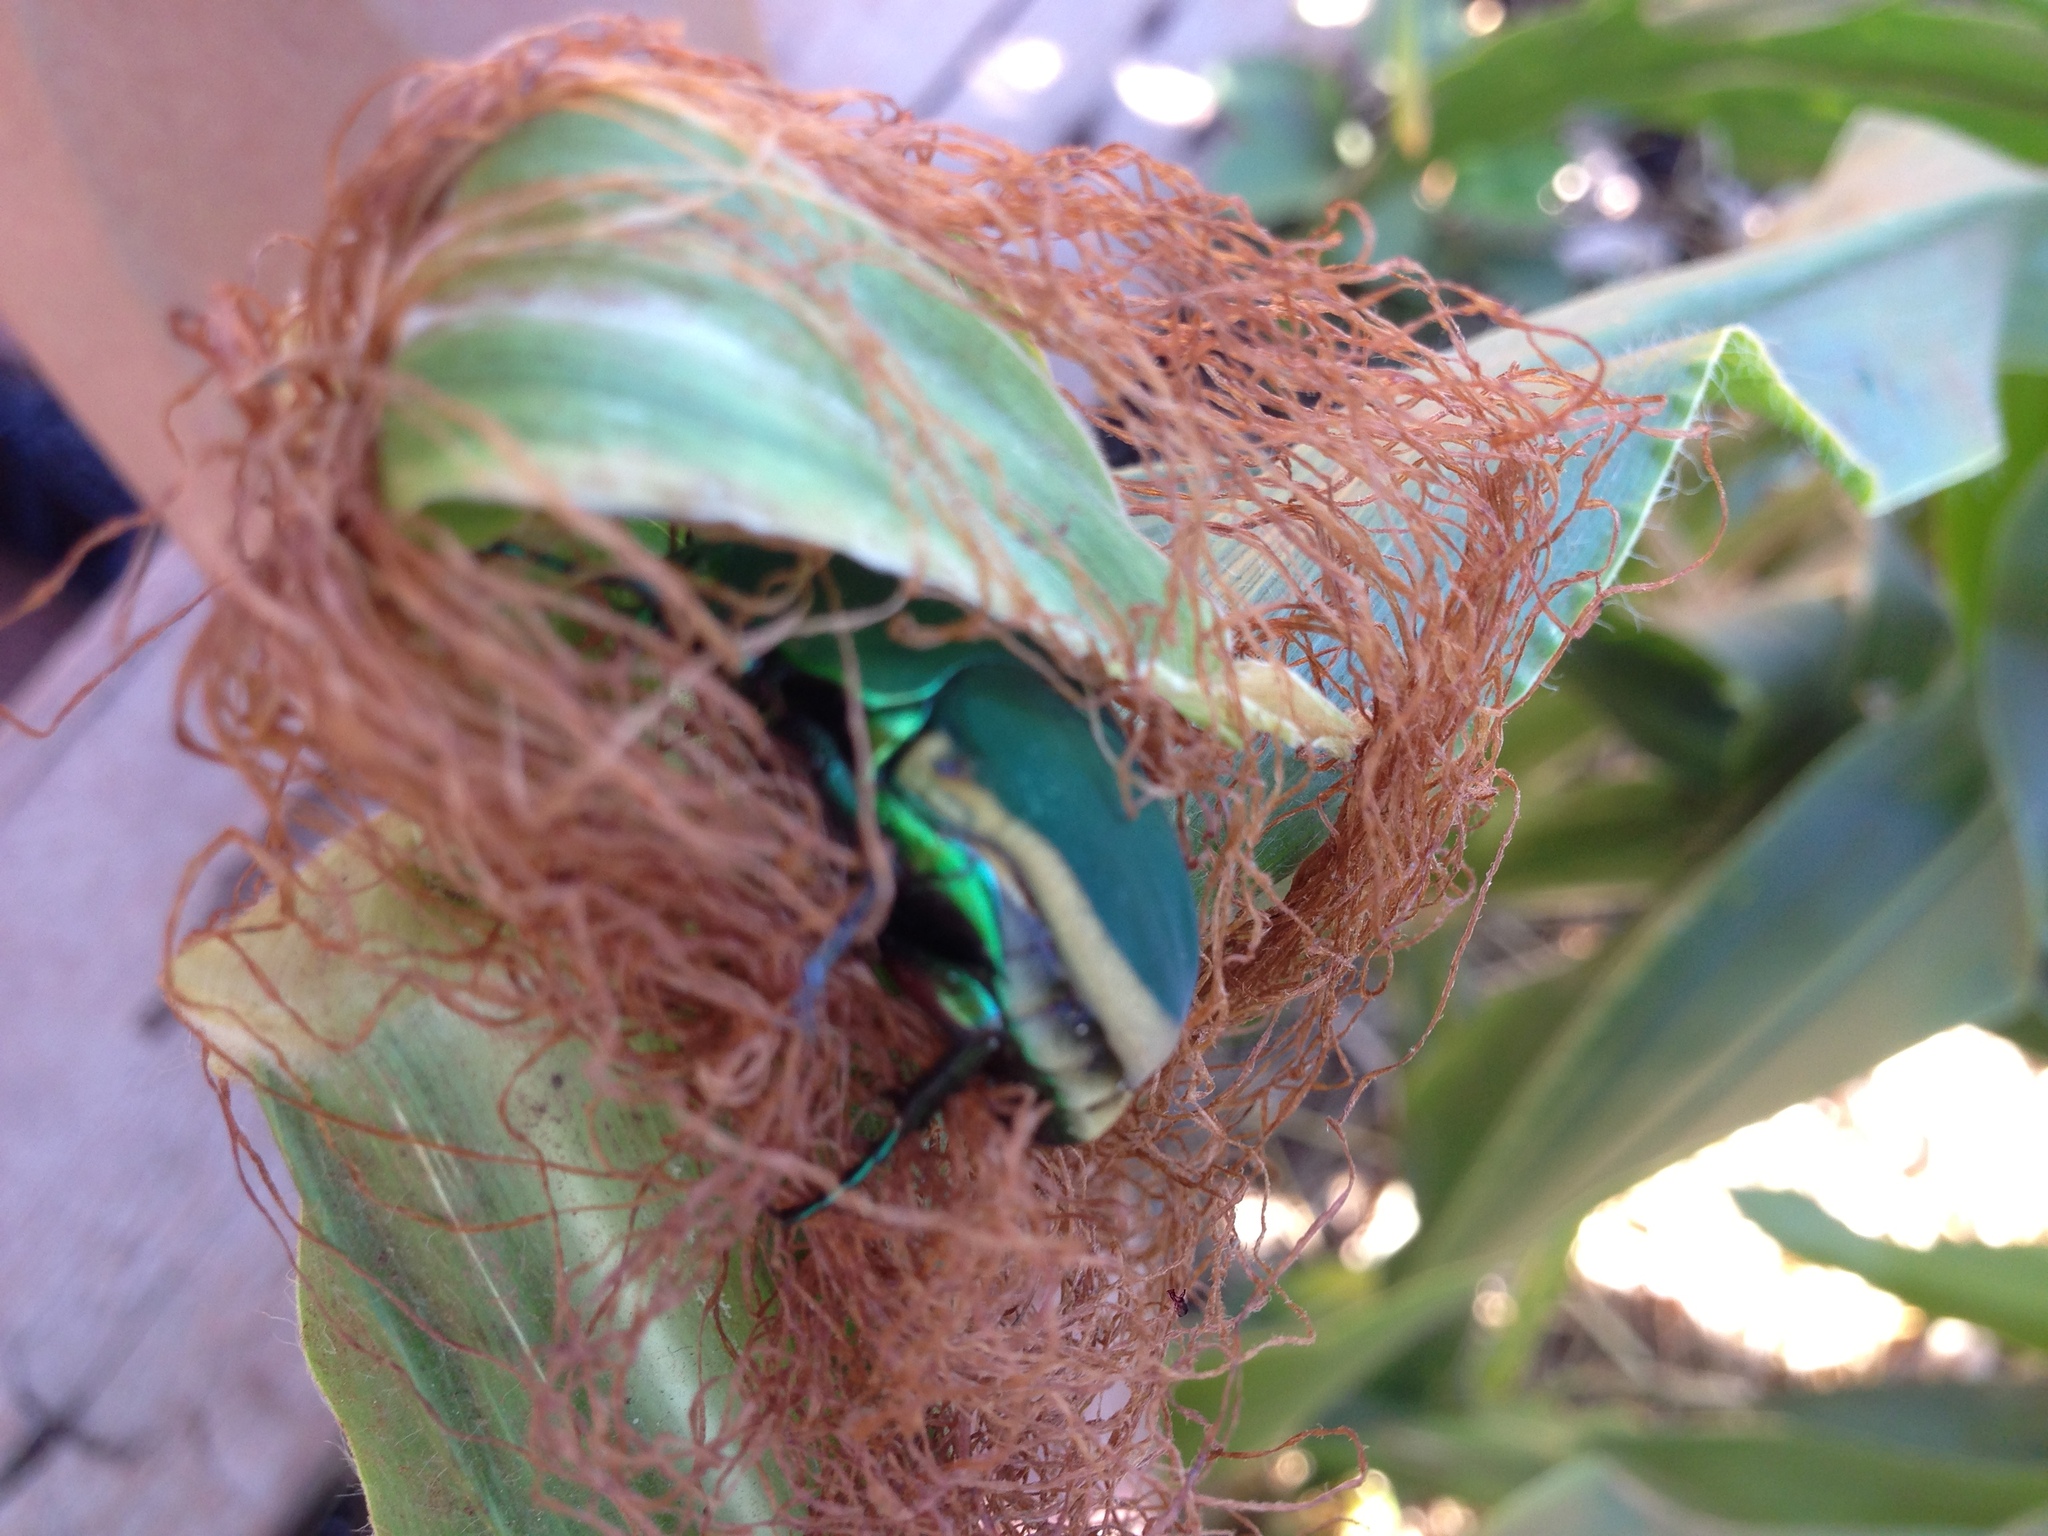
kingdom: Animalia
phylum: Arthropoda
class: Insecta
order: Coleoptera
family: Scarabaeidae
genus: Cotinis
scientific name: Cotinis mutabilis
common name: Figeater beetle
